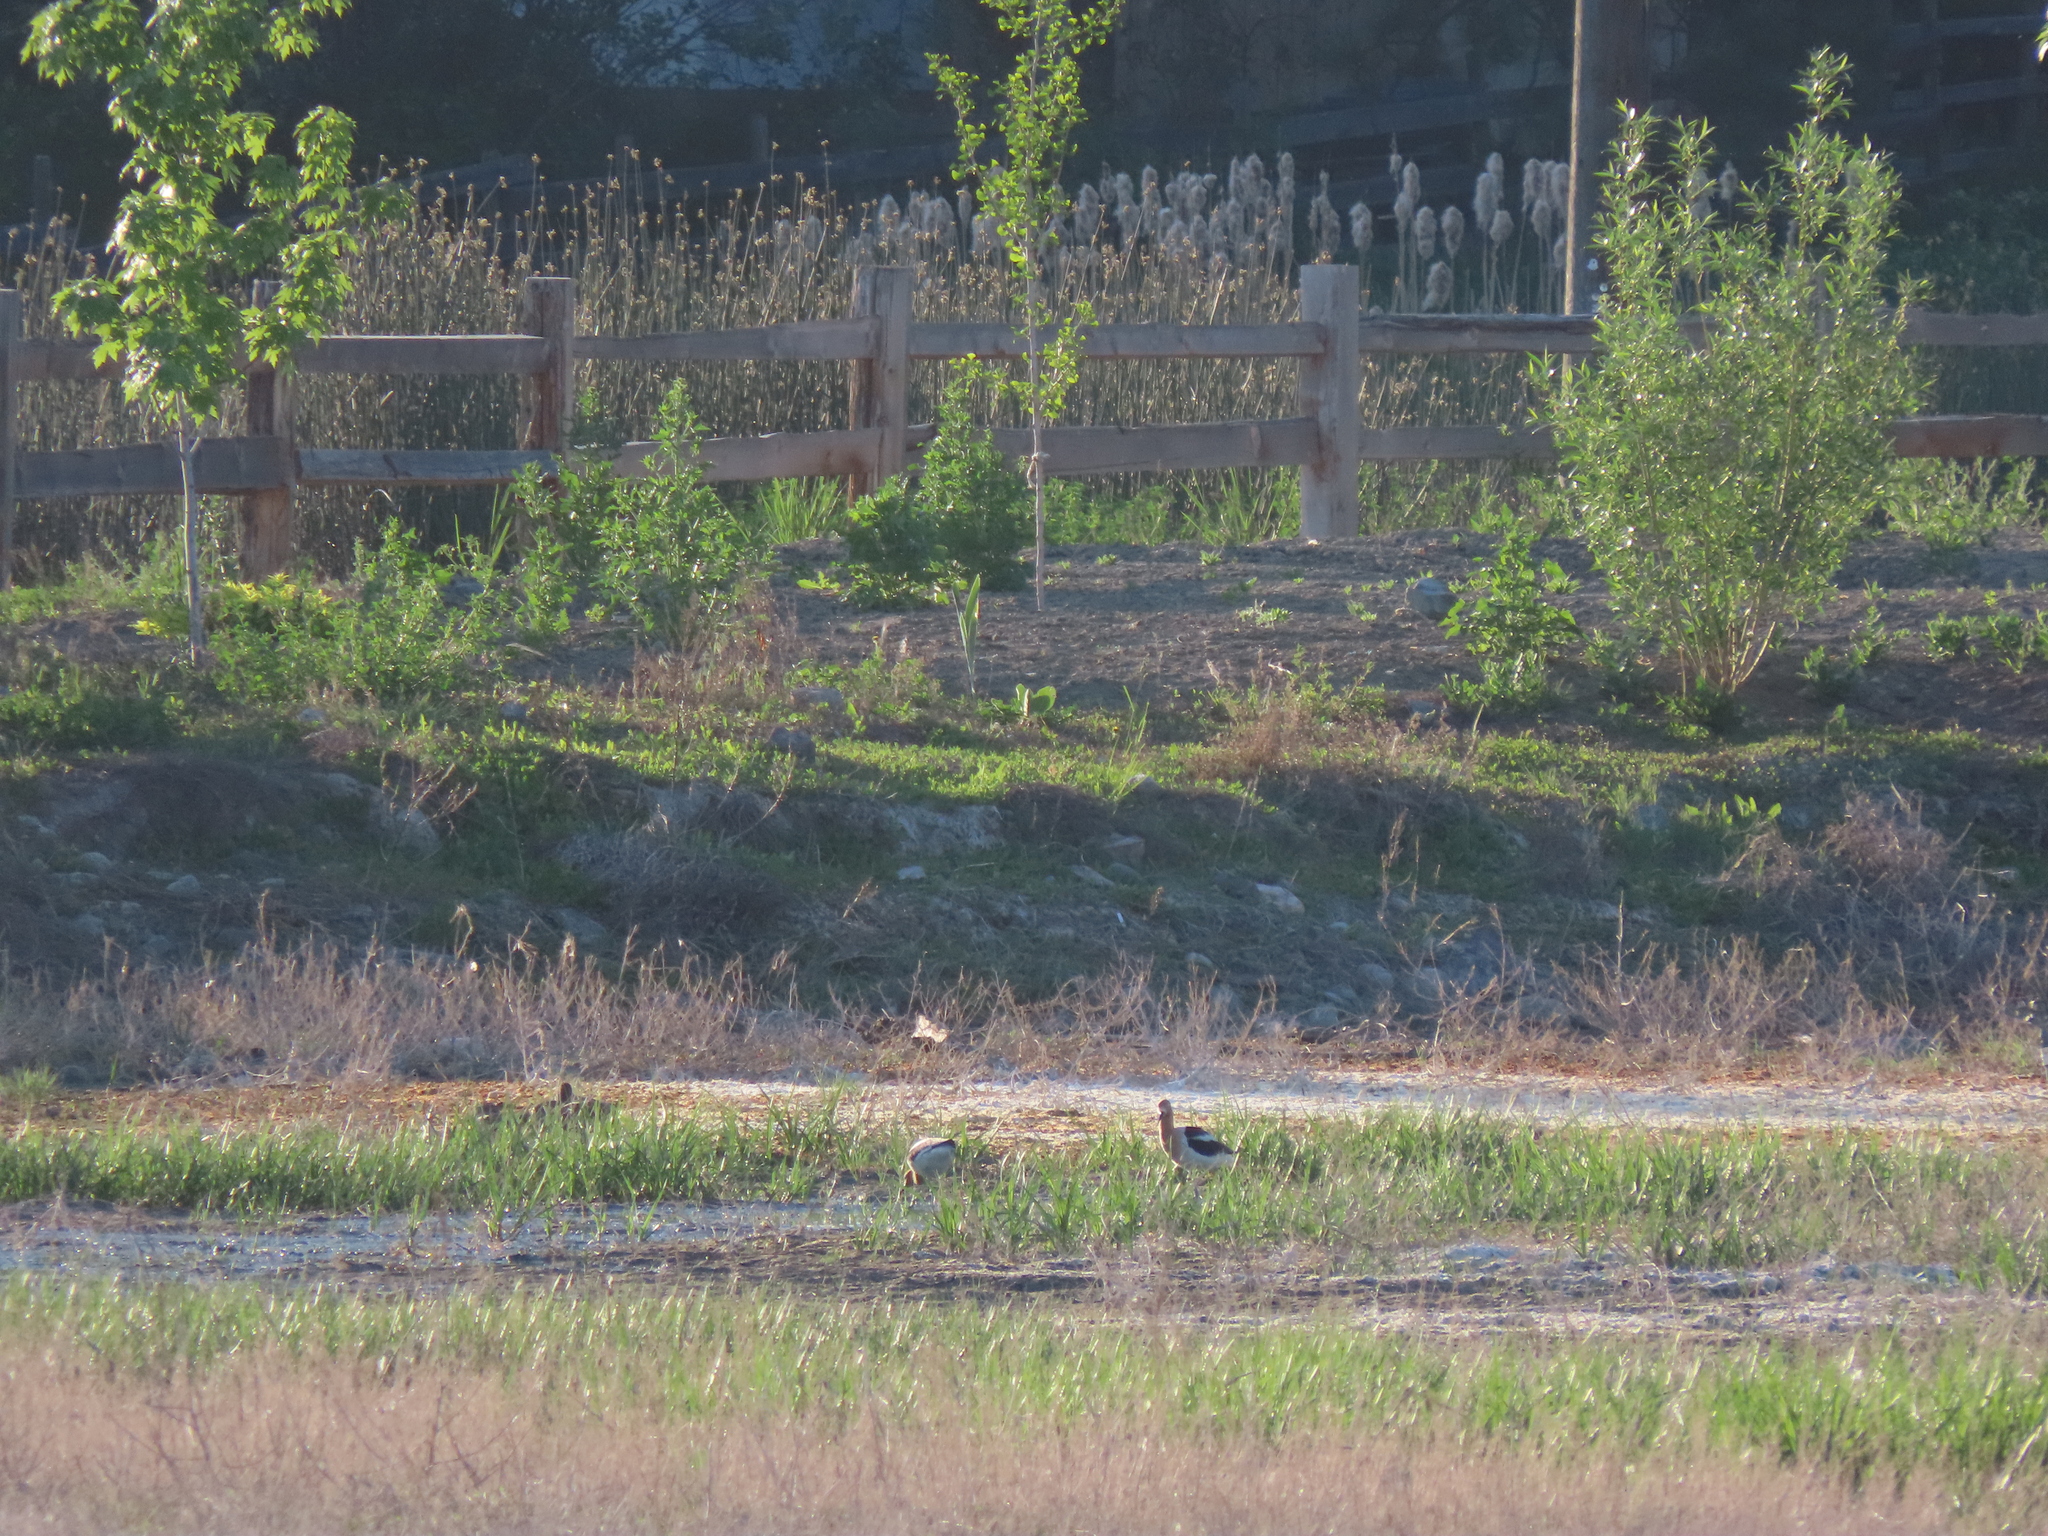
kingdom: Animalia
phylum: Chordata
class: Aves
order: Charadriiformes
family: Recurvirostridae
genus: Recurvirostra
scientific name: Recurvirostra americana
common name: American avocet
